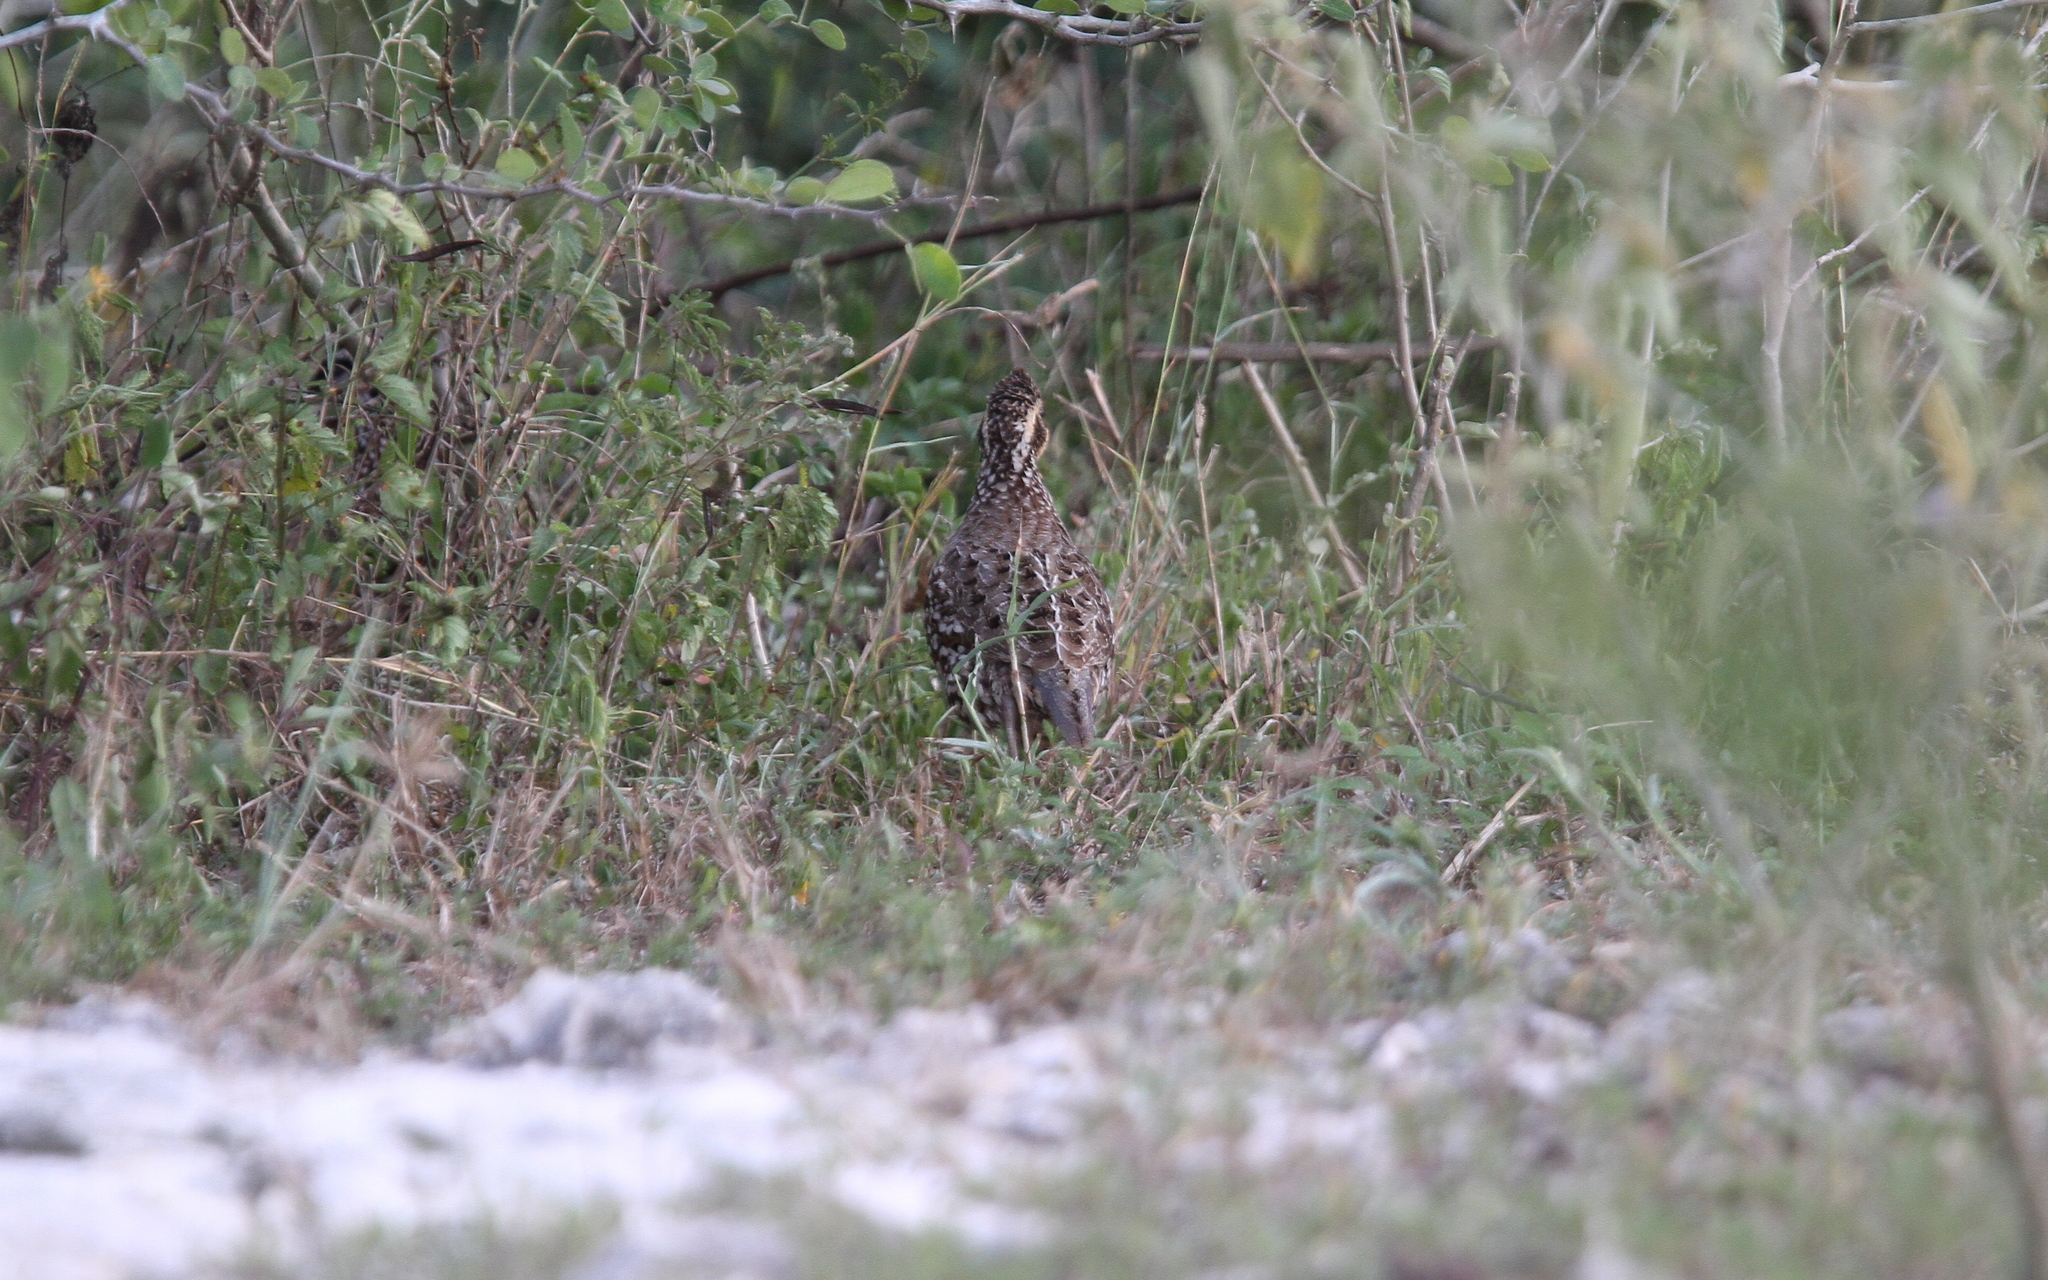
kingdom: Animalia
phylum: Chordata
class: Aves
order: Galliformes
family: Odontophoridae
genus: Colinus
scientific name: Colinus nigrogularis
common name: Yucatan bobwhite
